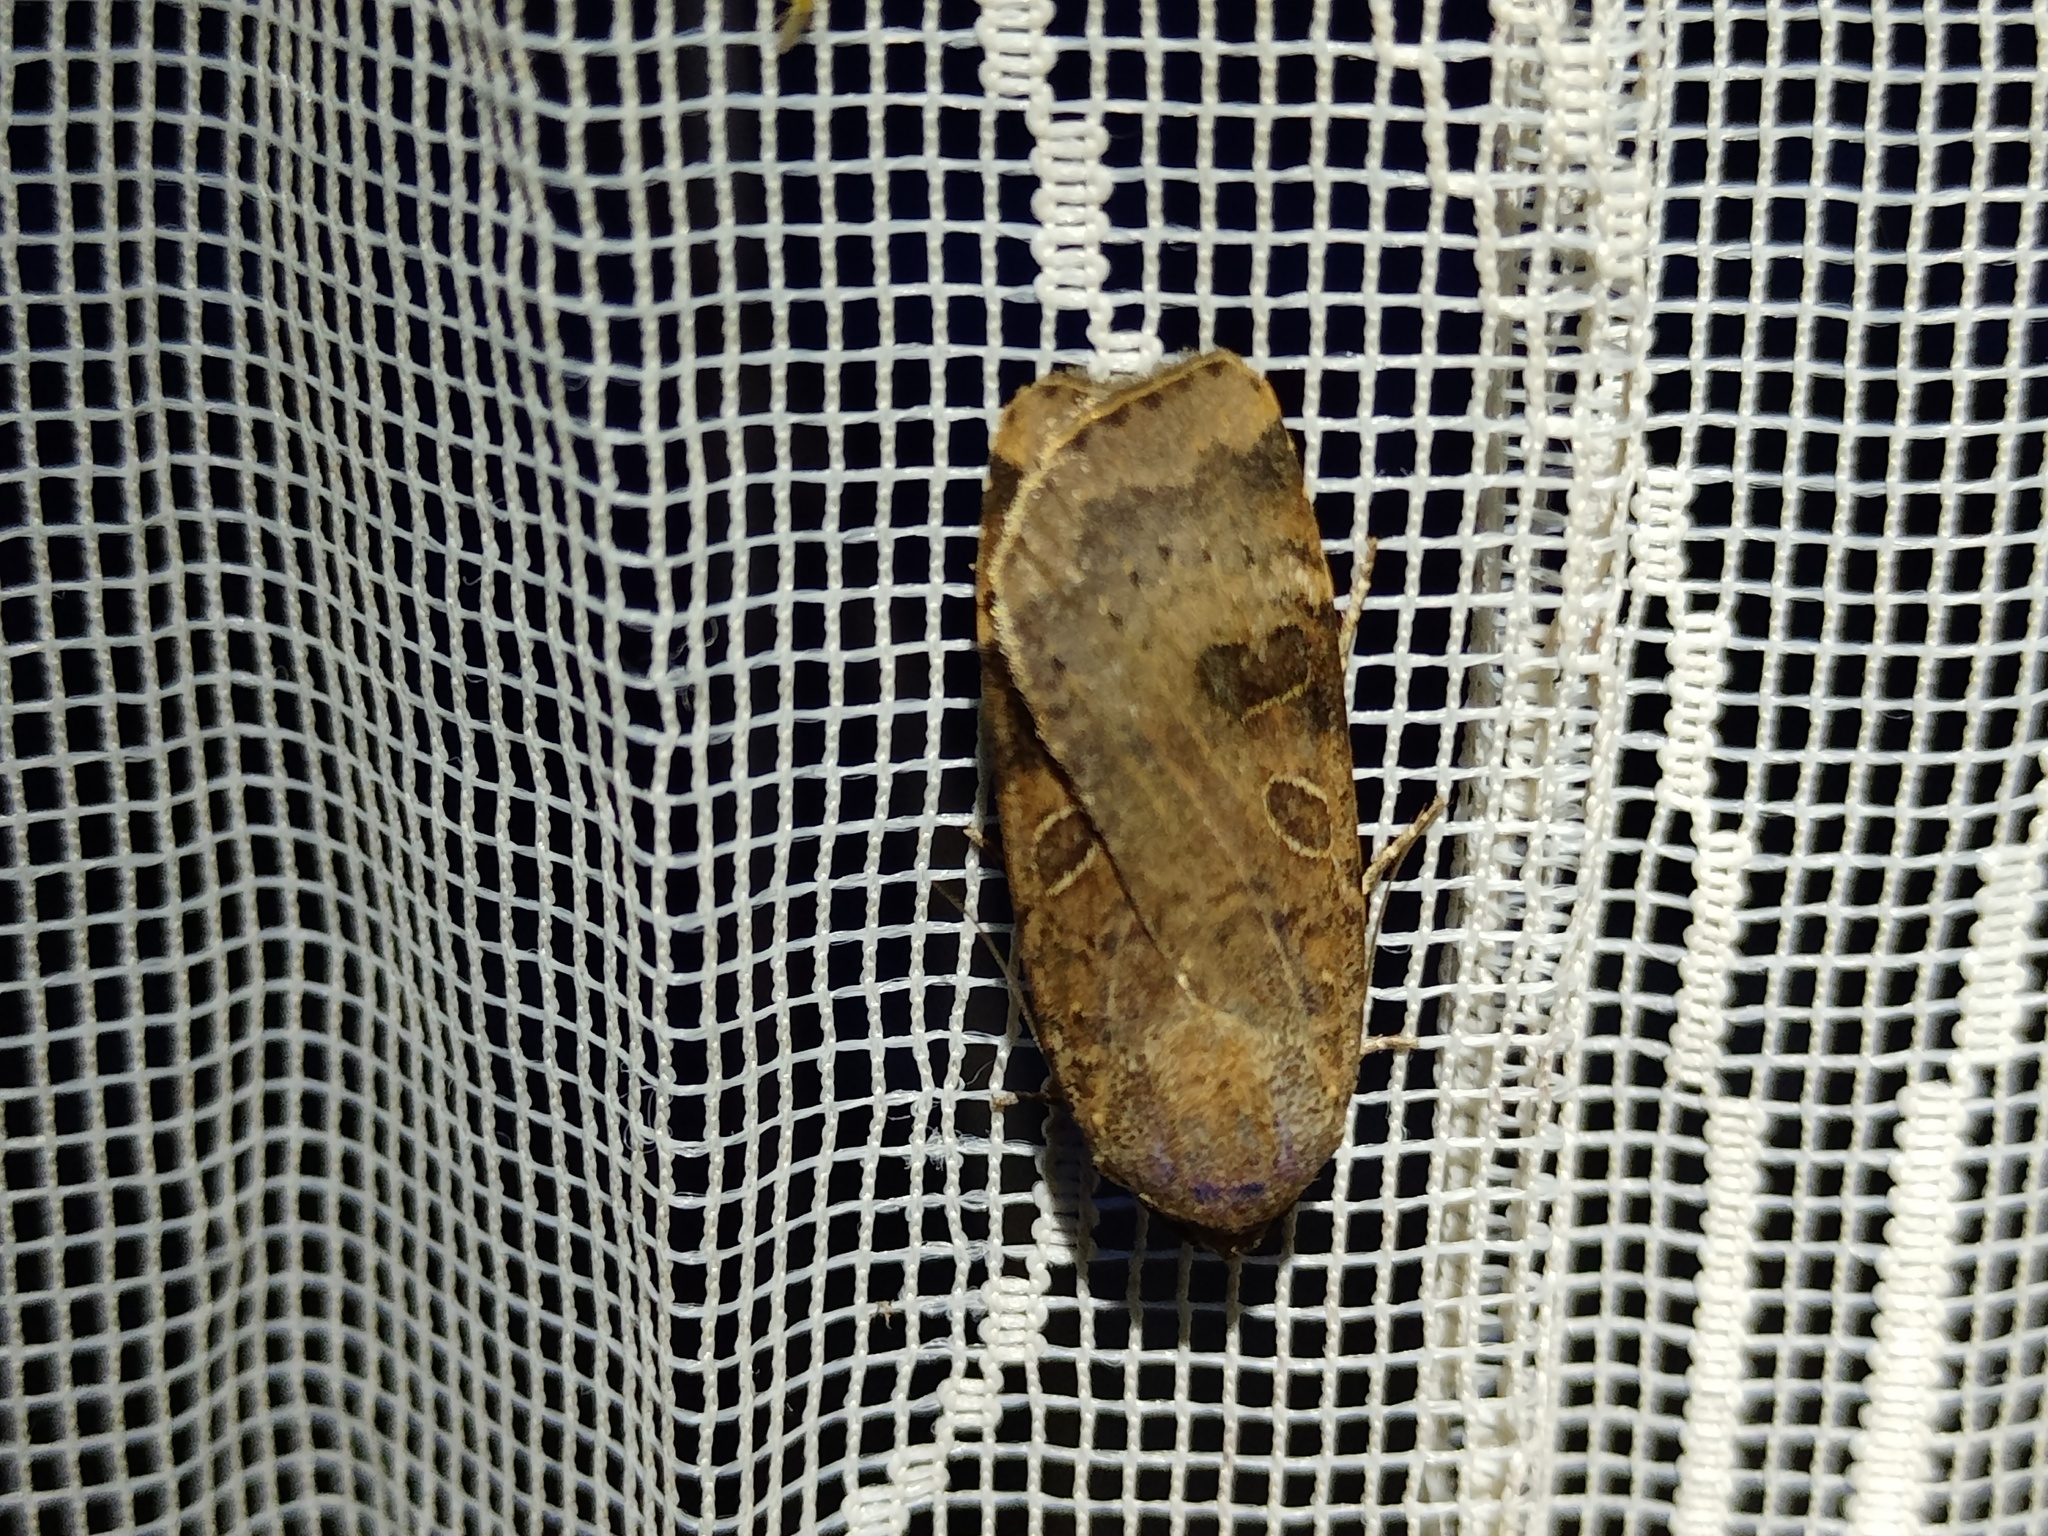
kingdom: Animalia
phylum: Arthropoda
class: Insecta
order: Lepidoptera
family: Noctuidae
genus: Noctua
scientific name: Noctua interposita
